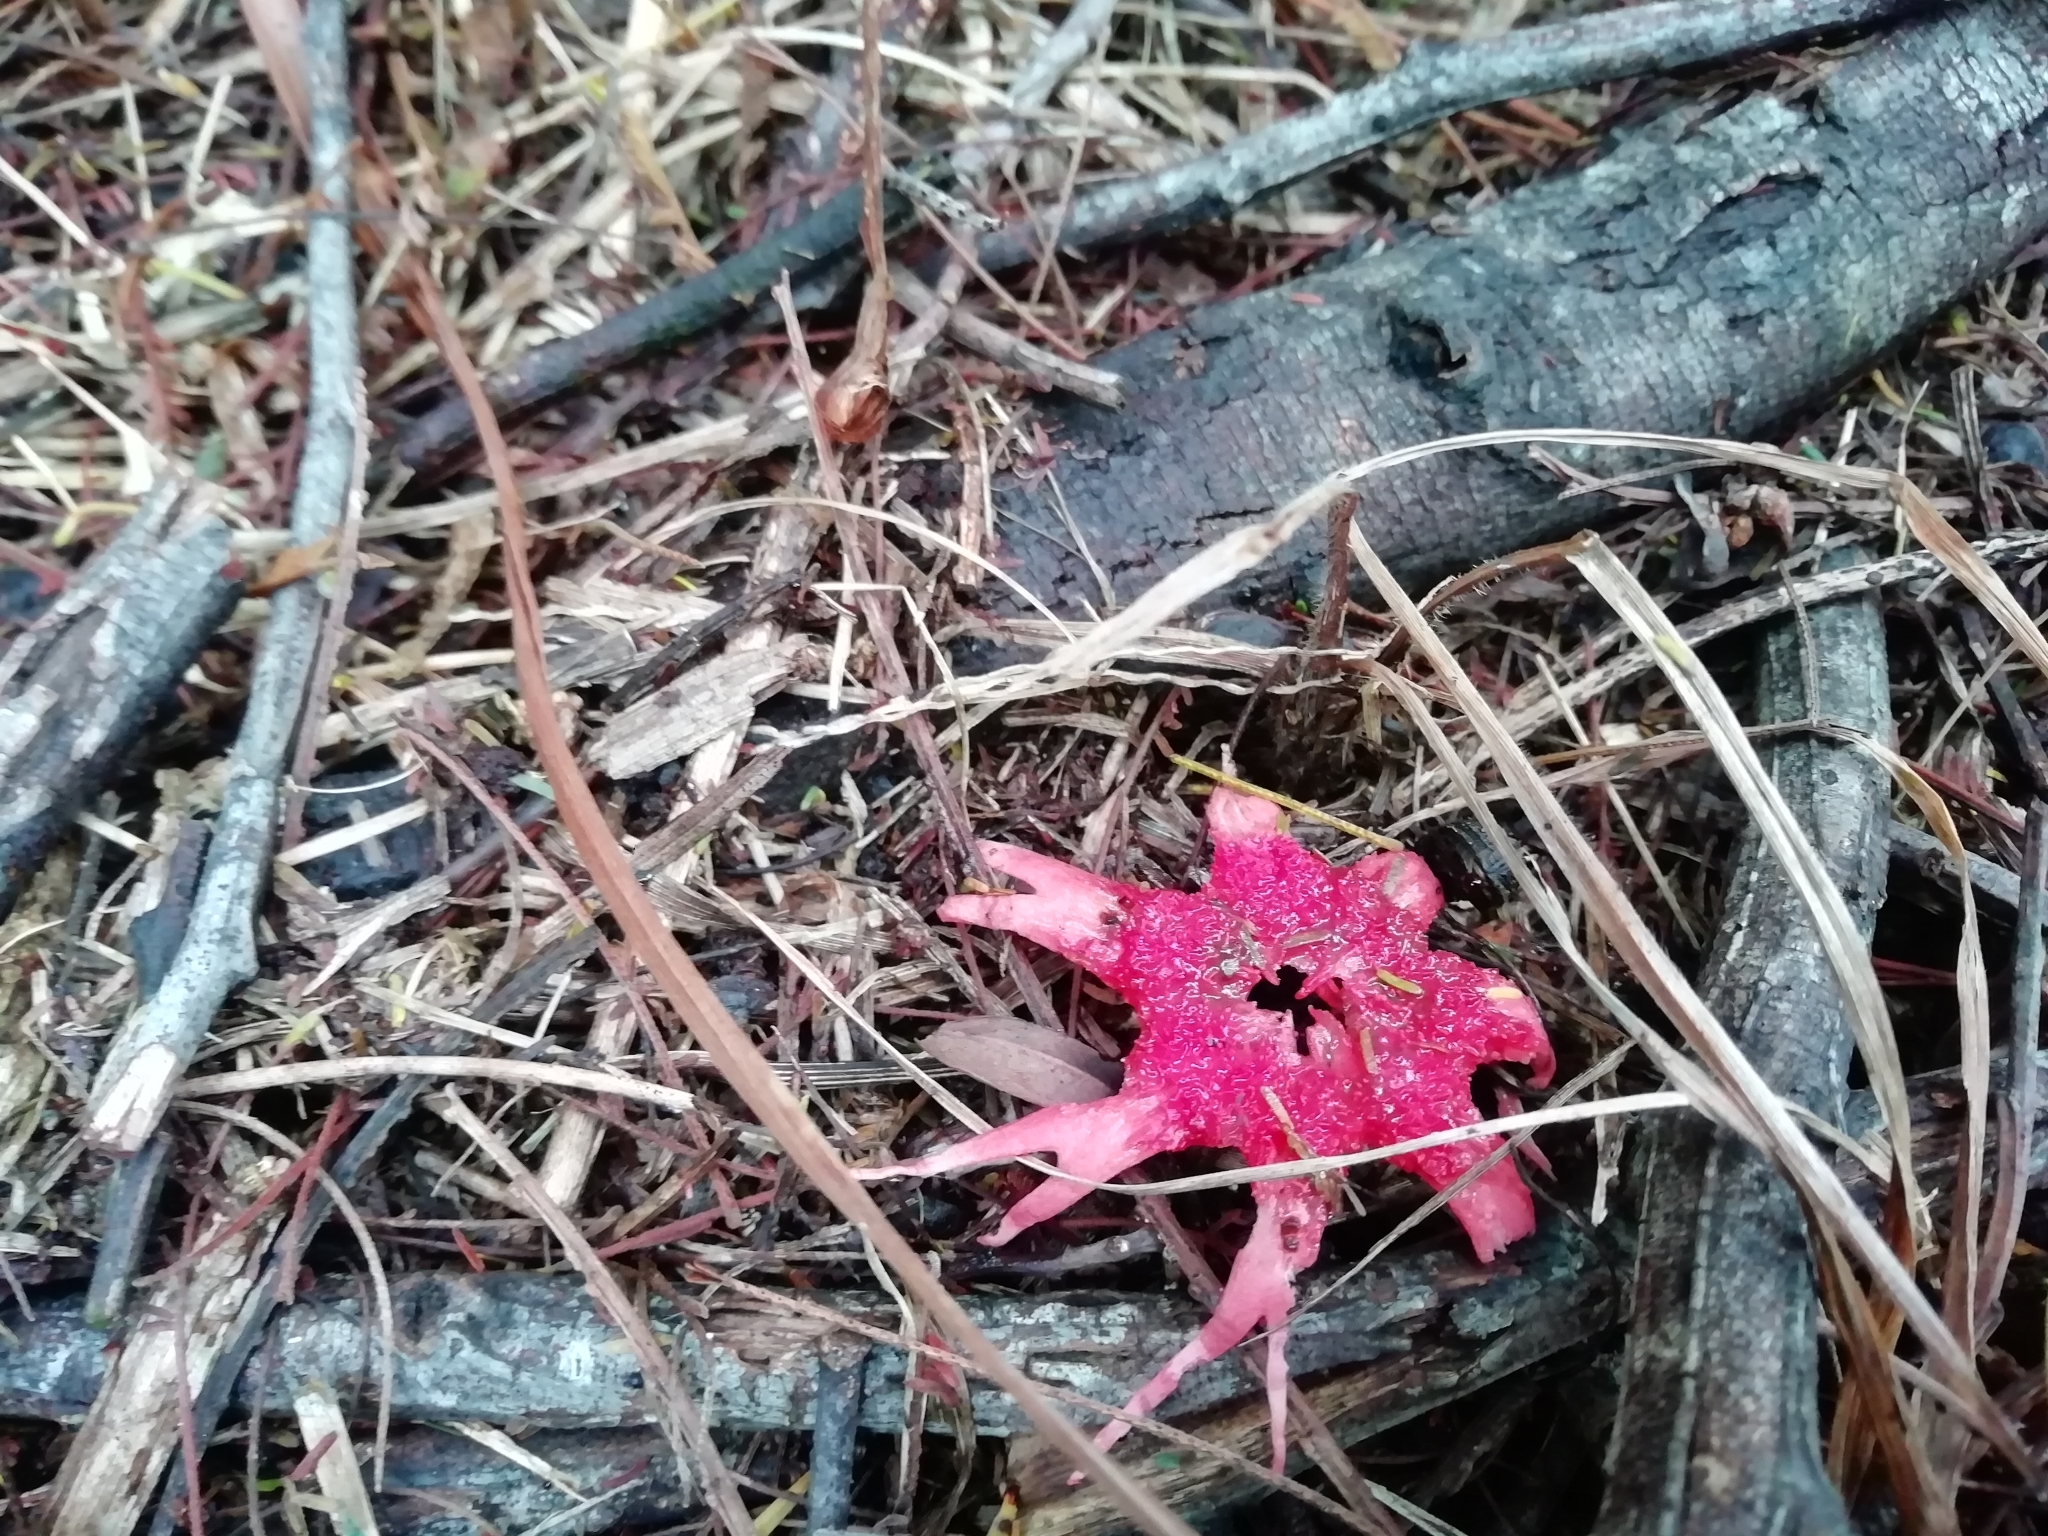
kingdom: Fungi
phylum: Basidiomycota
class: Agaricomycetes
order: Phallales
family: Phallaceae
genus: Aseroe
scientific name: Aseroe rubra
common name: Starfish fungus
